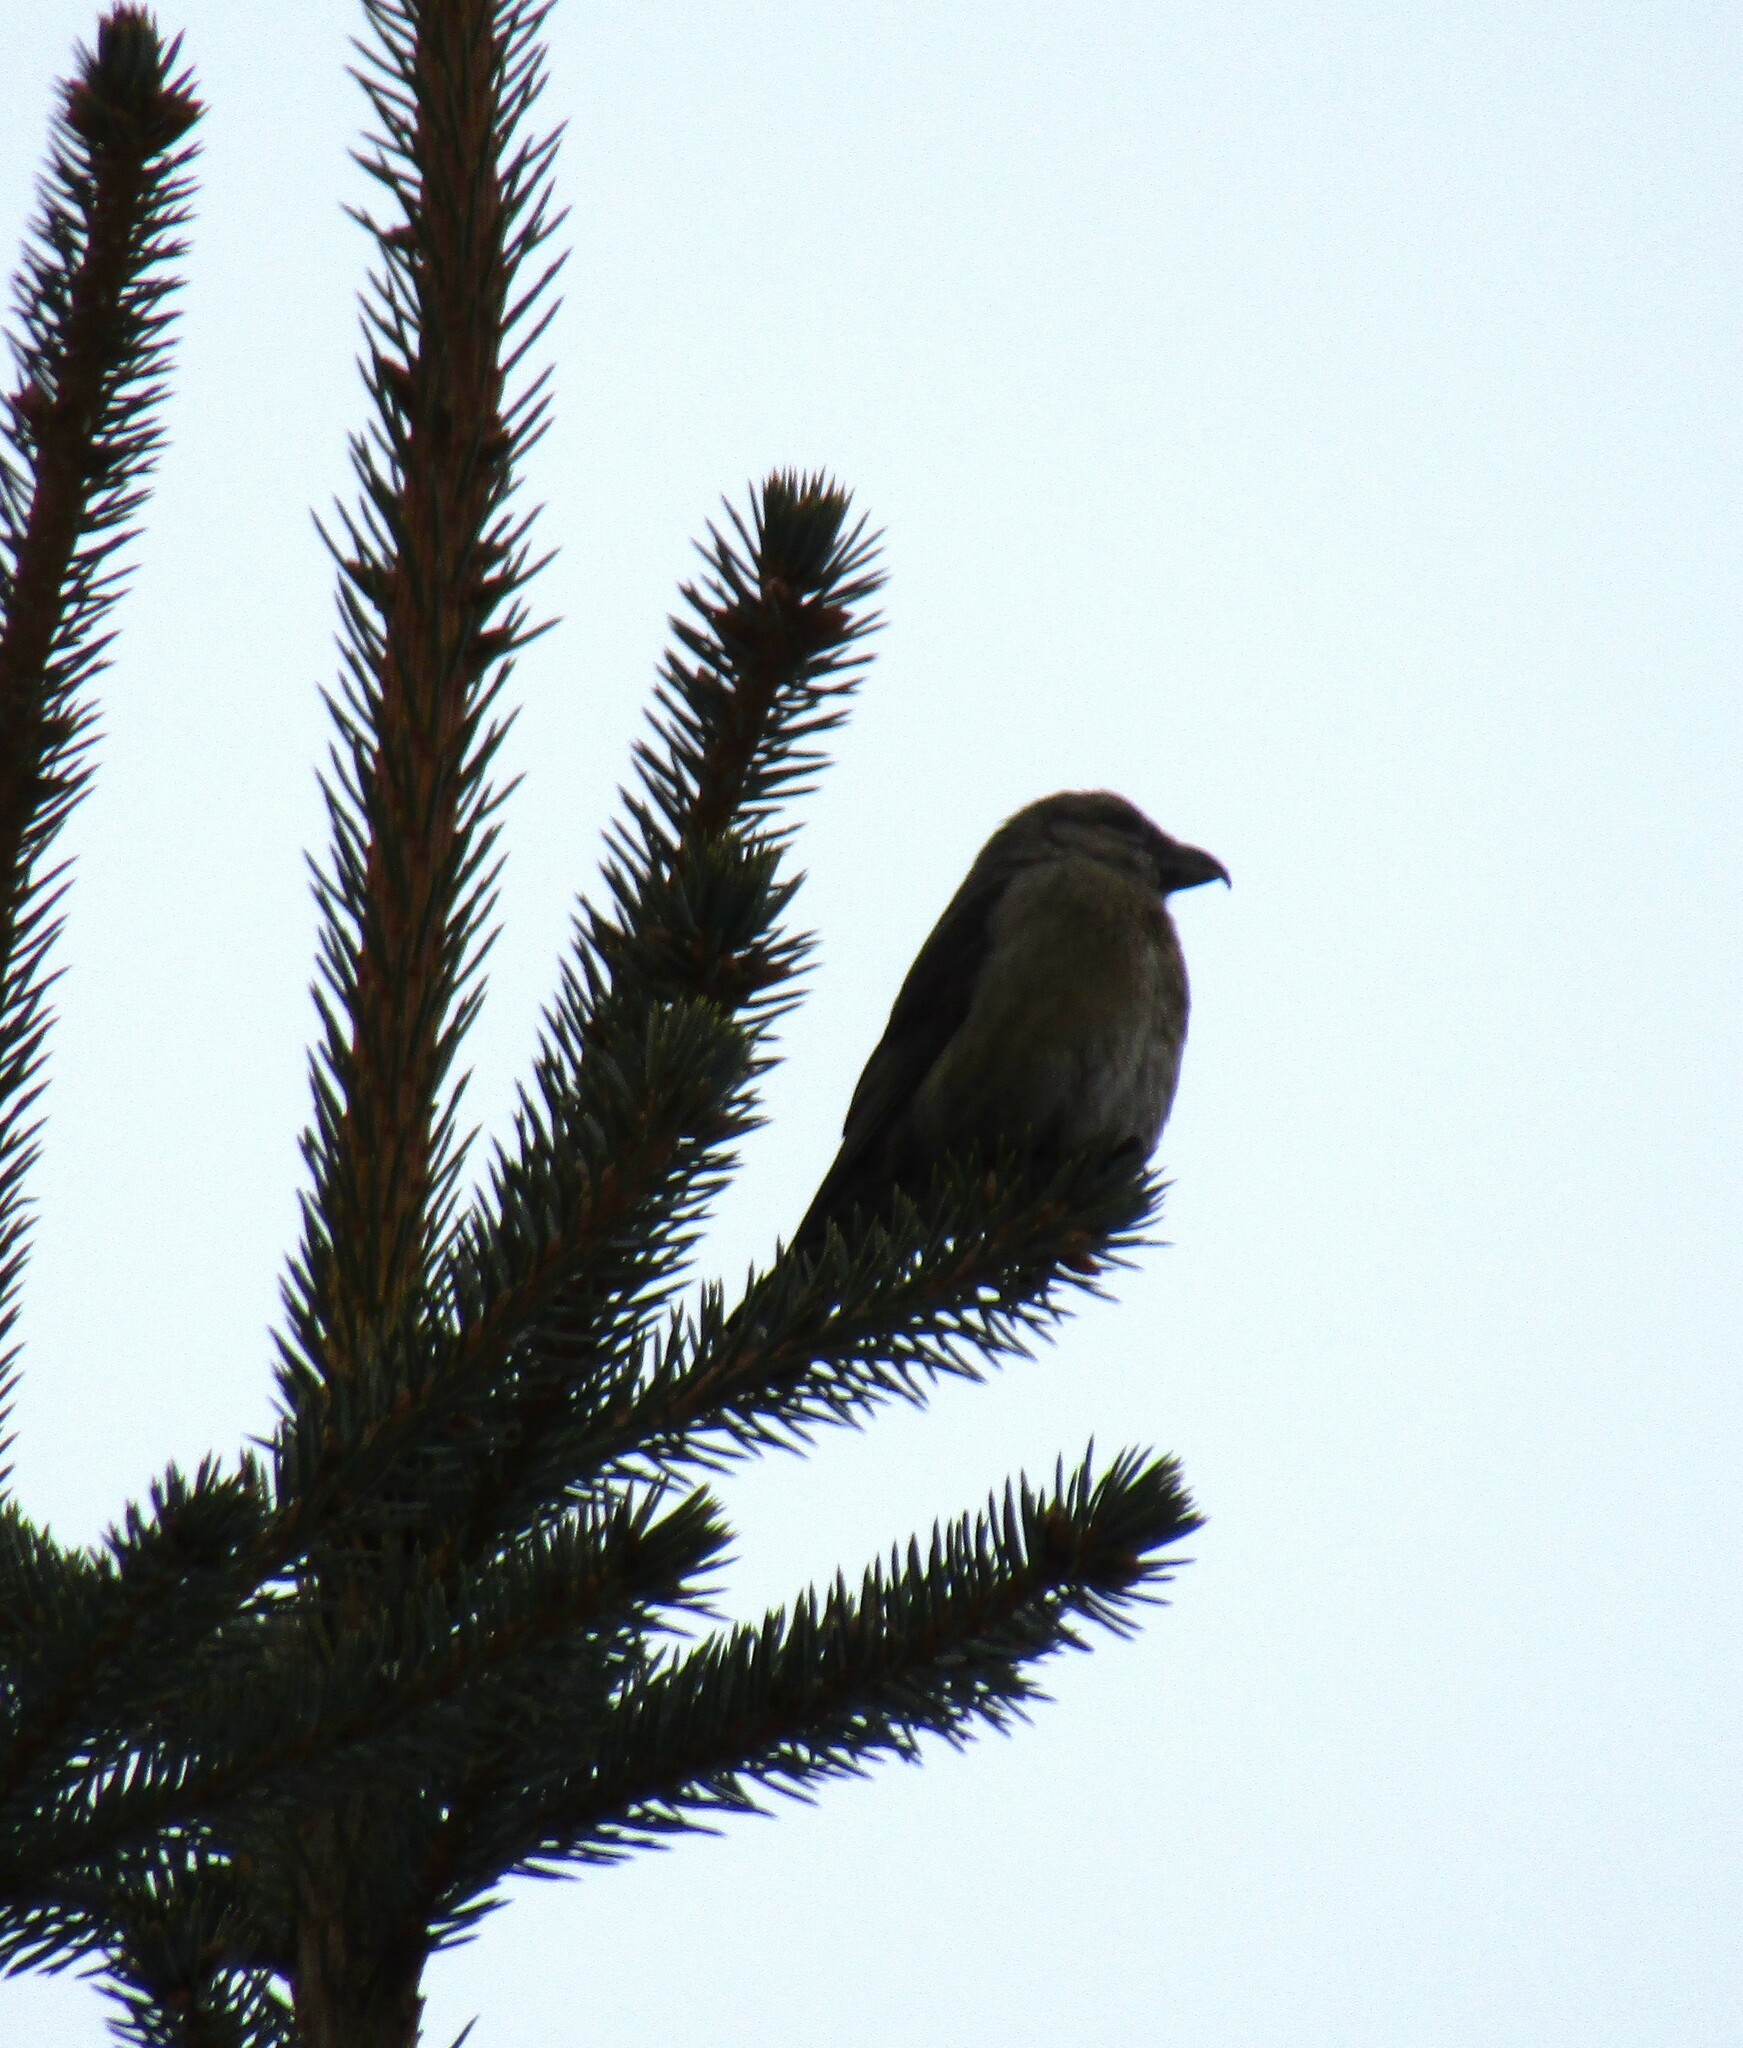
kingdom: Animalia
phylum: Chordata
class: Aves
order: Passeriformes
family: Fringillidae
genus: Loxia
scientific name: Loxia curvirostra
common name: Red crossbill
